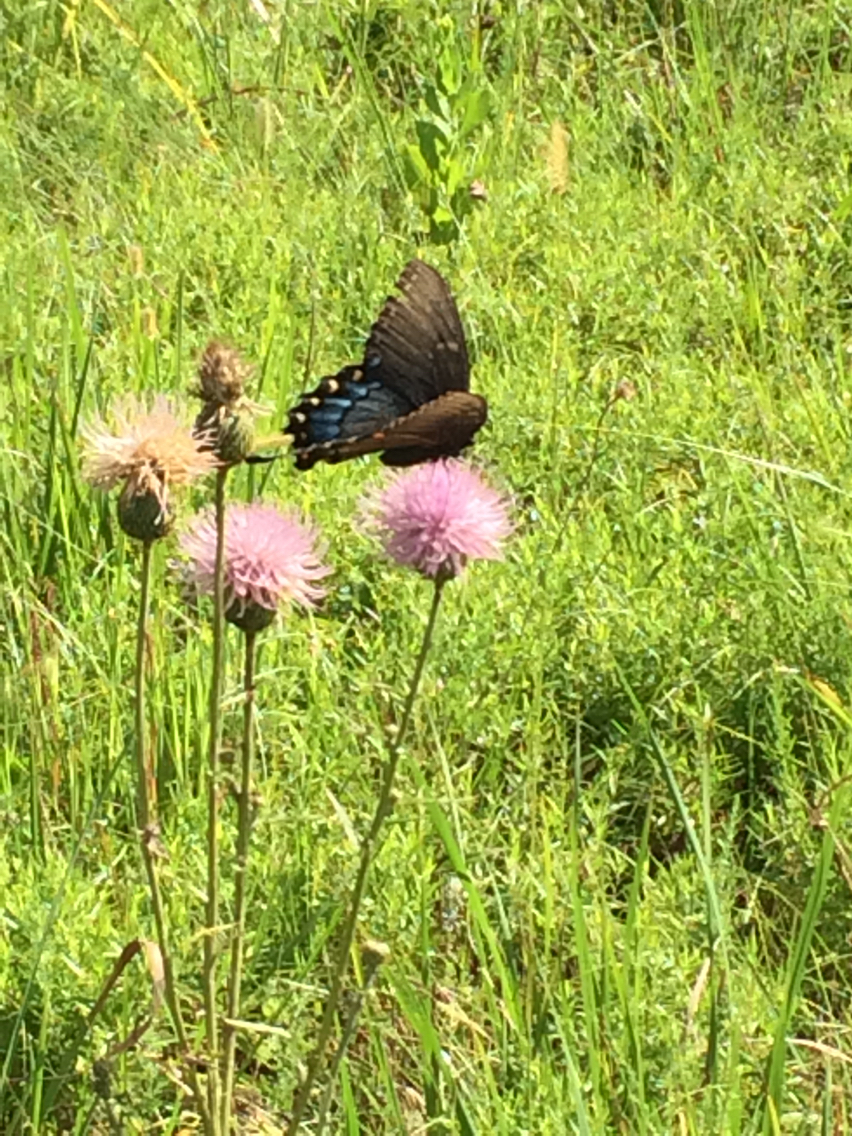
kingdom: Animalia
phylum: Arthropoda
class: Insecta
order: Lepidoptera
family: Papilionidae
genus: Papilio
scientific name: Papilio glaucus
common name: Tiger swallowtail
